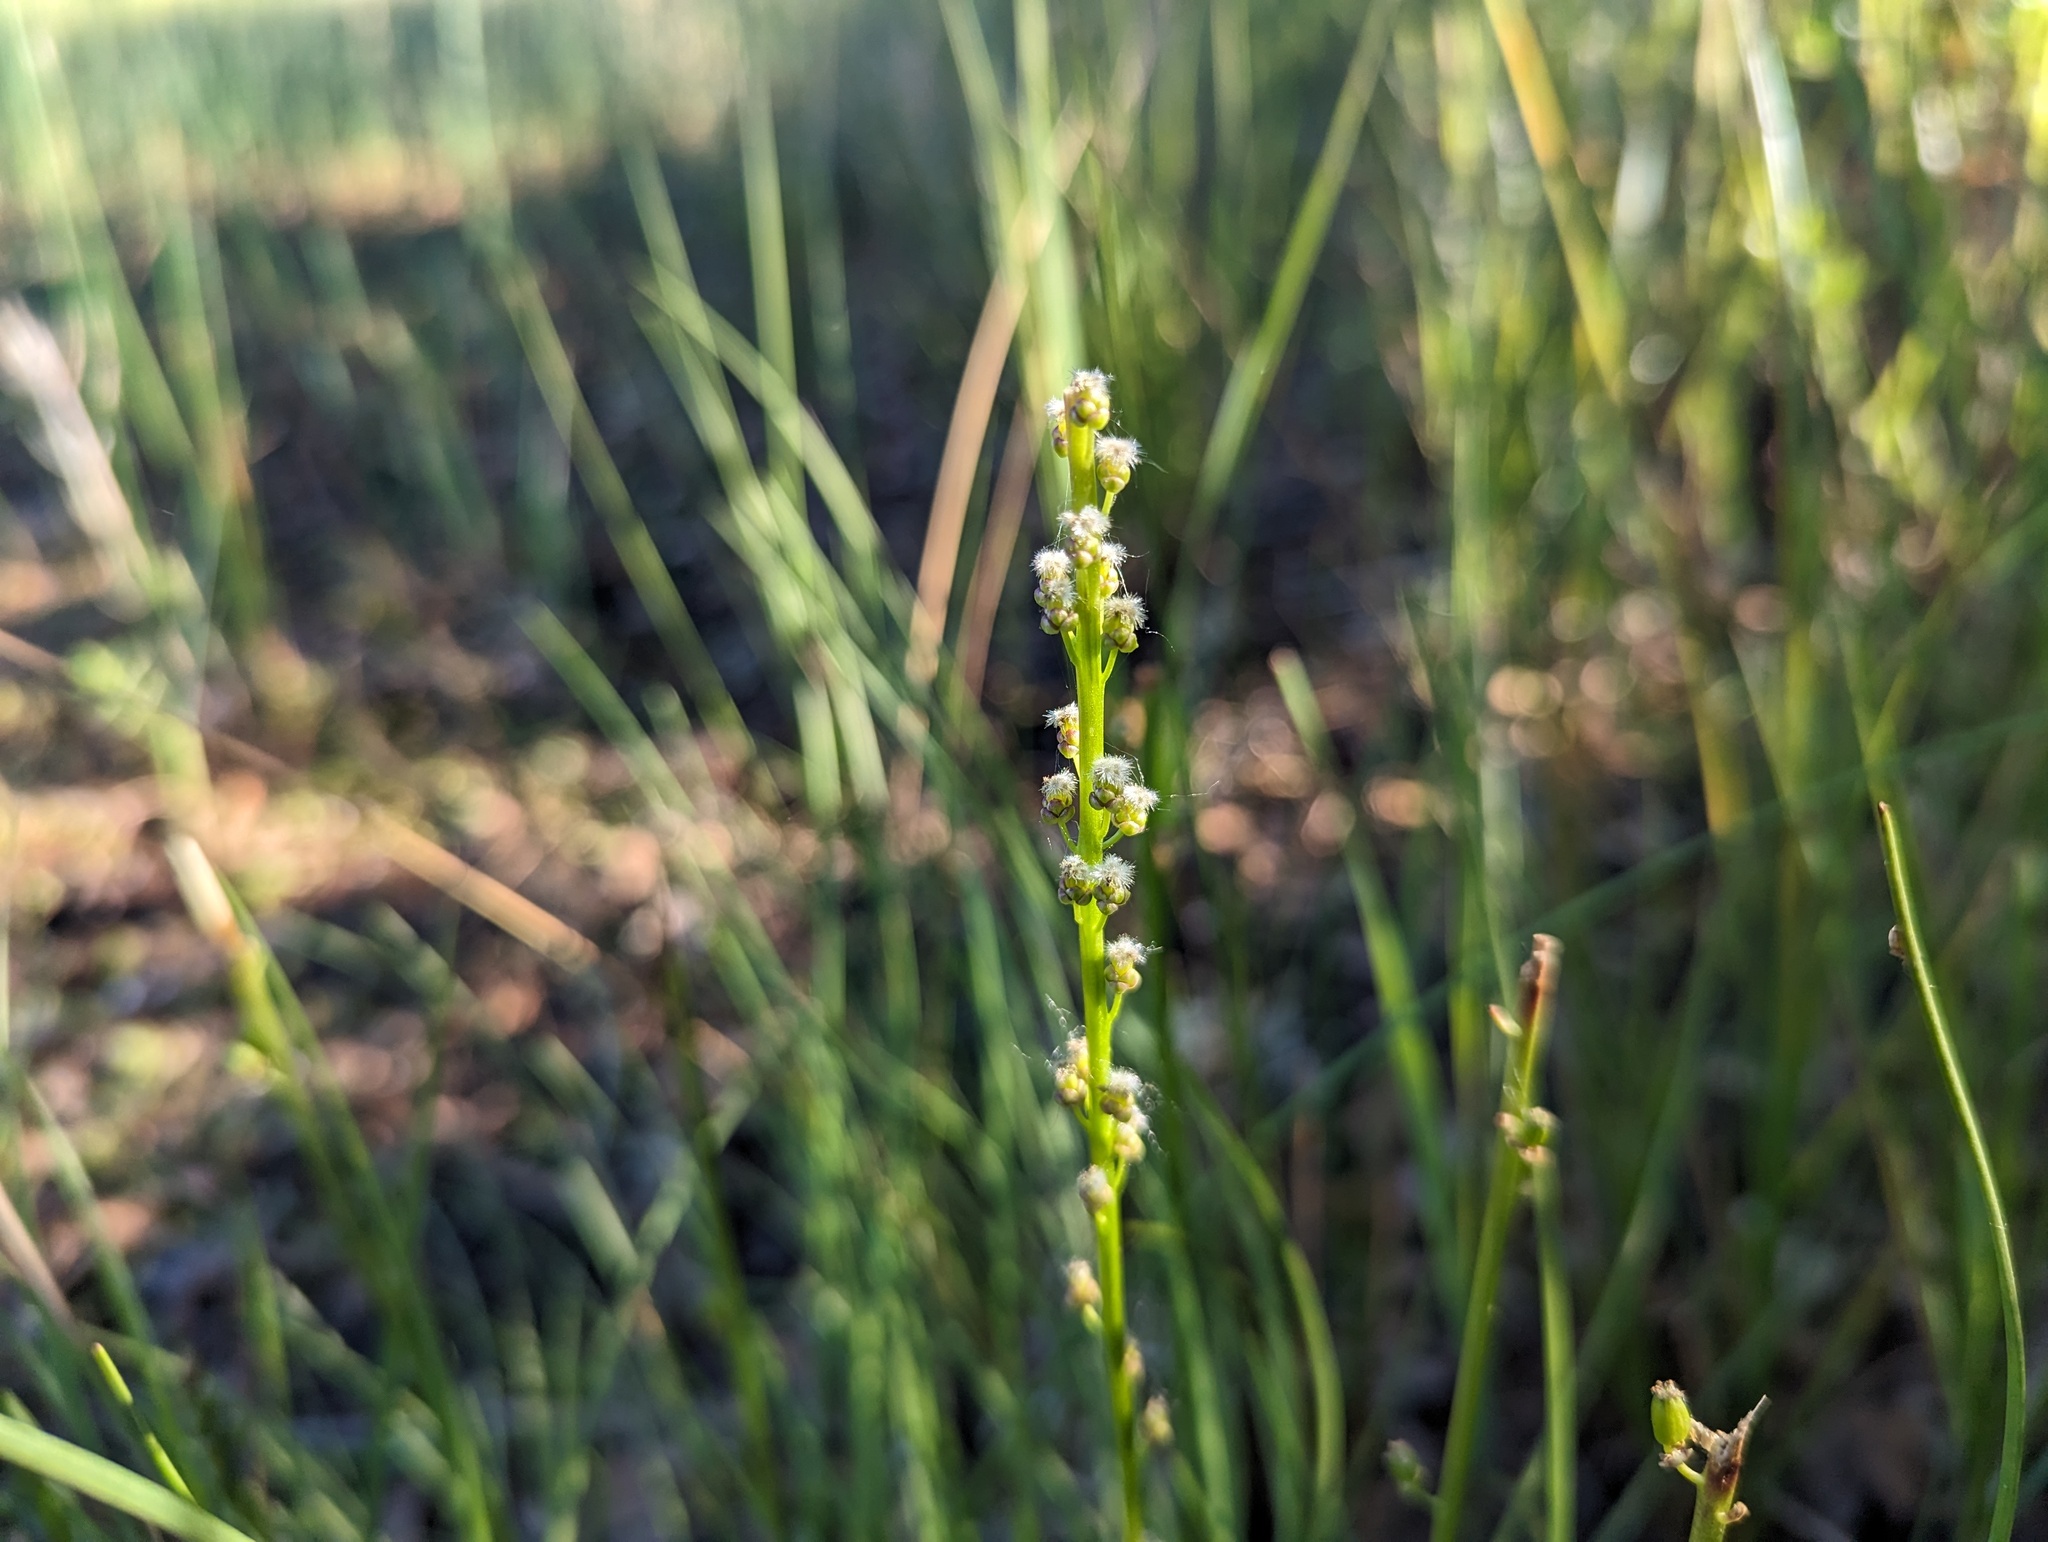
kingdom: Plantae
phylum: Tracheophyta
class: Liliopsida
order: Alismatales
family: Juncaginaceae
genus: Triglochin
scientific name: Triglochin maritima
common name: Sea arrowgrass
